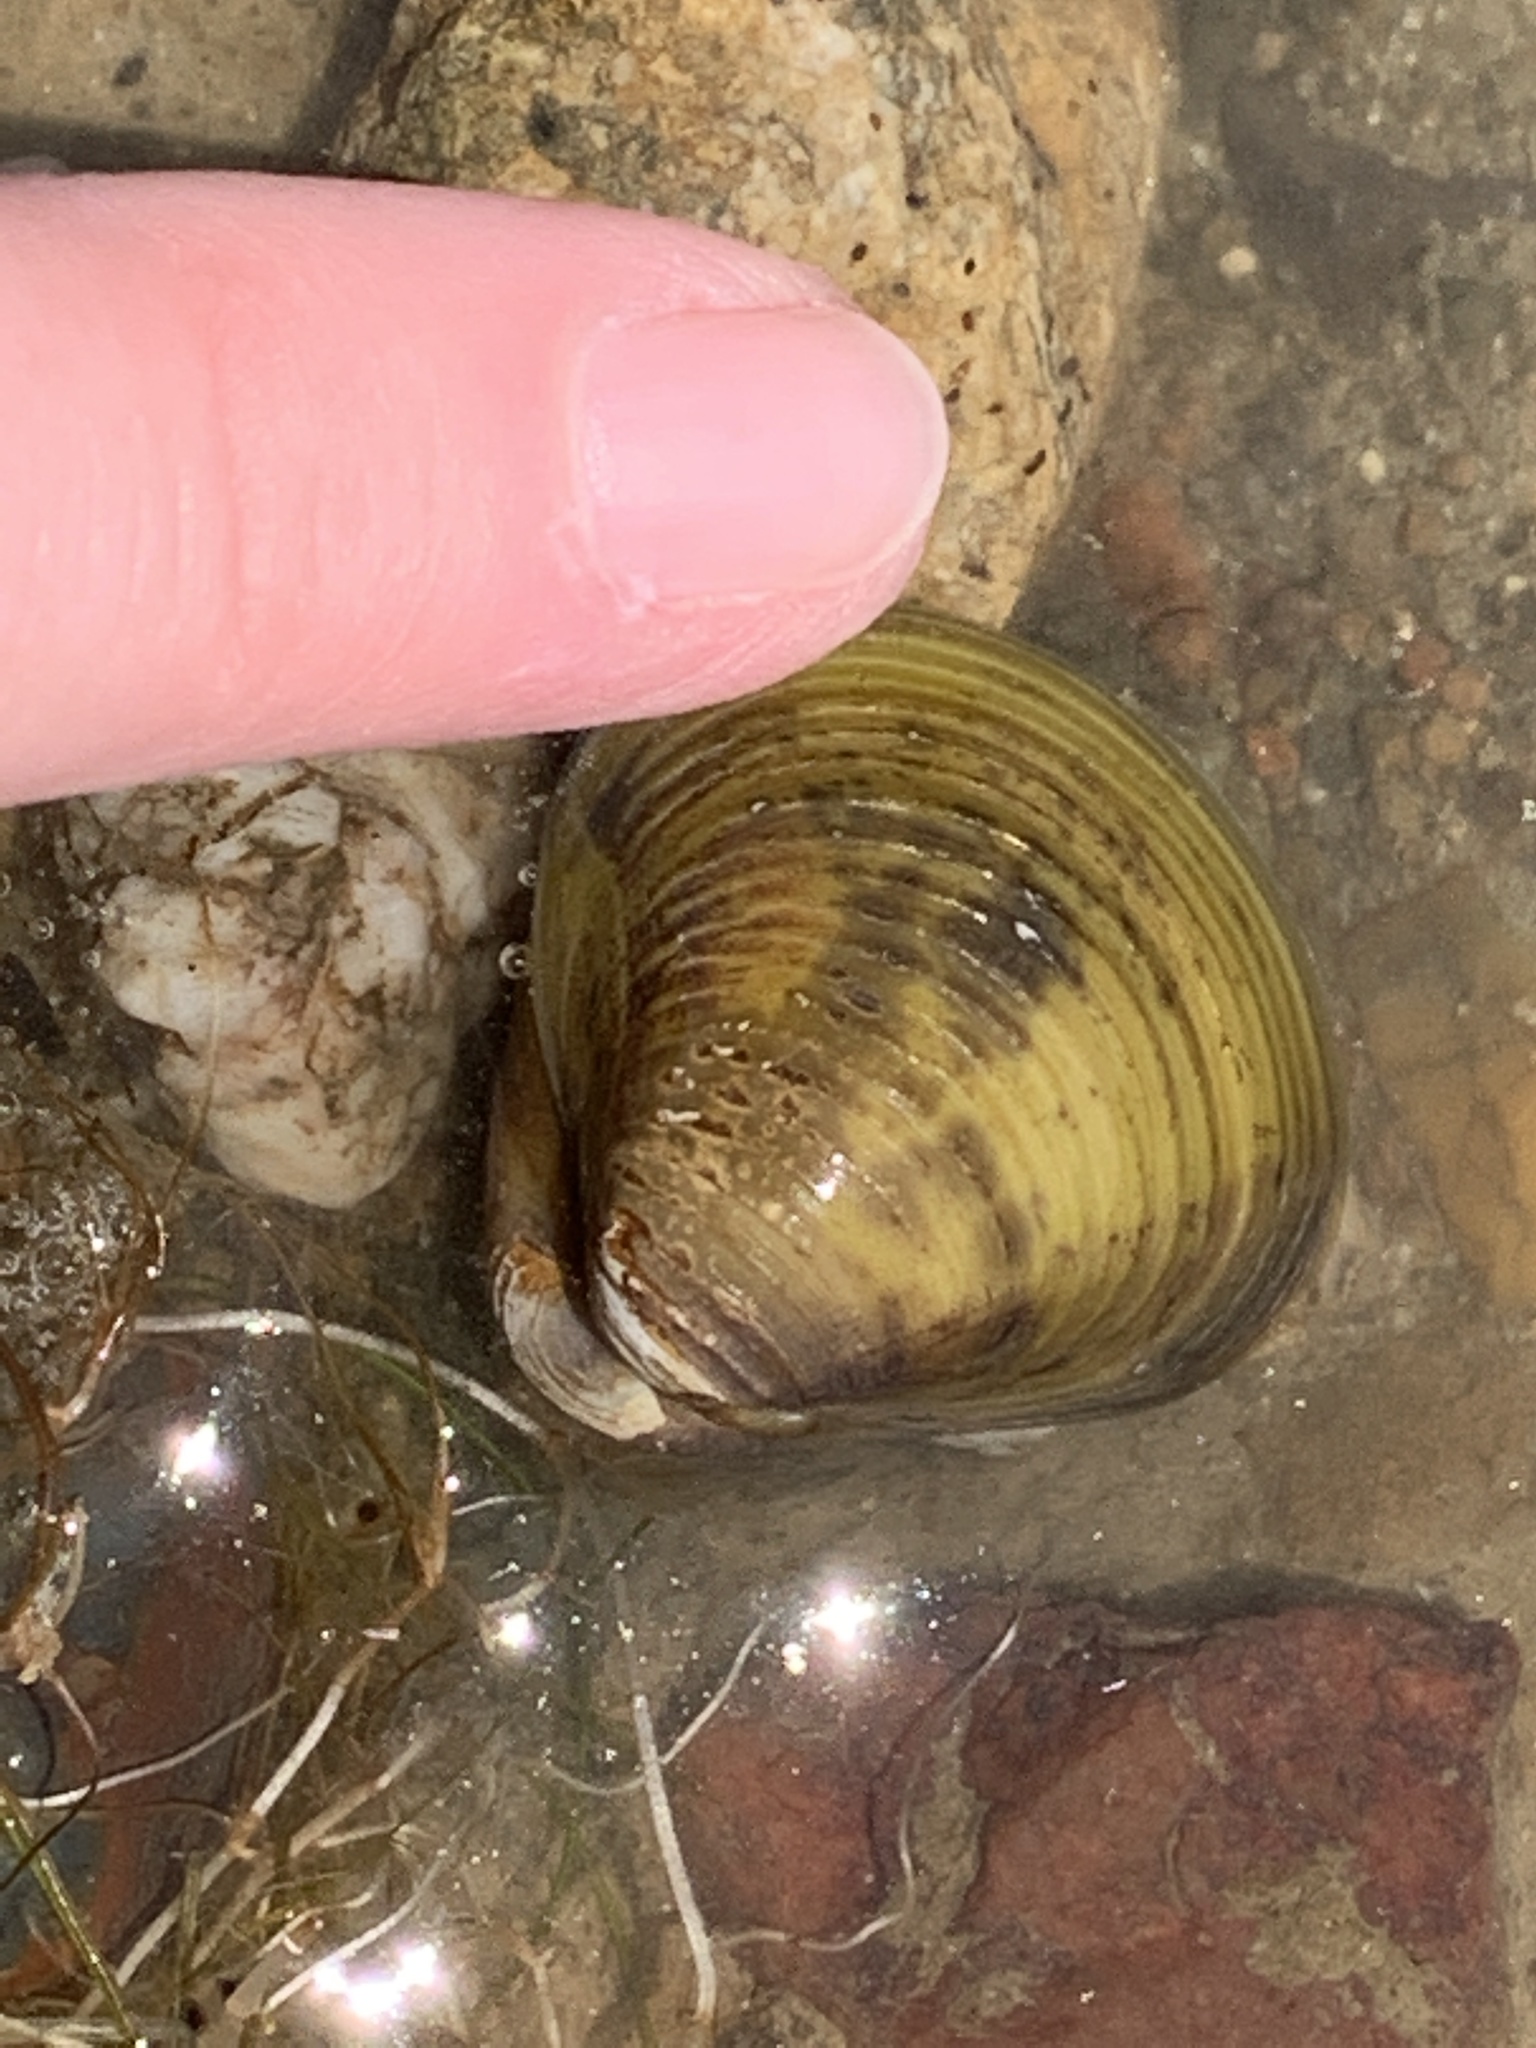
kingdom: Animalia
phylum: Mollusca
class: Bivalvia
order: Venerida
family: Cyrenidae
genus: Corbicula
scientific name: Corbicula fluminea
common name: Asian clam
